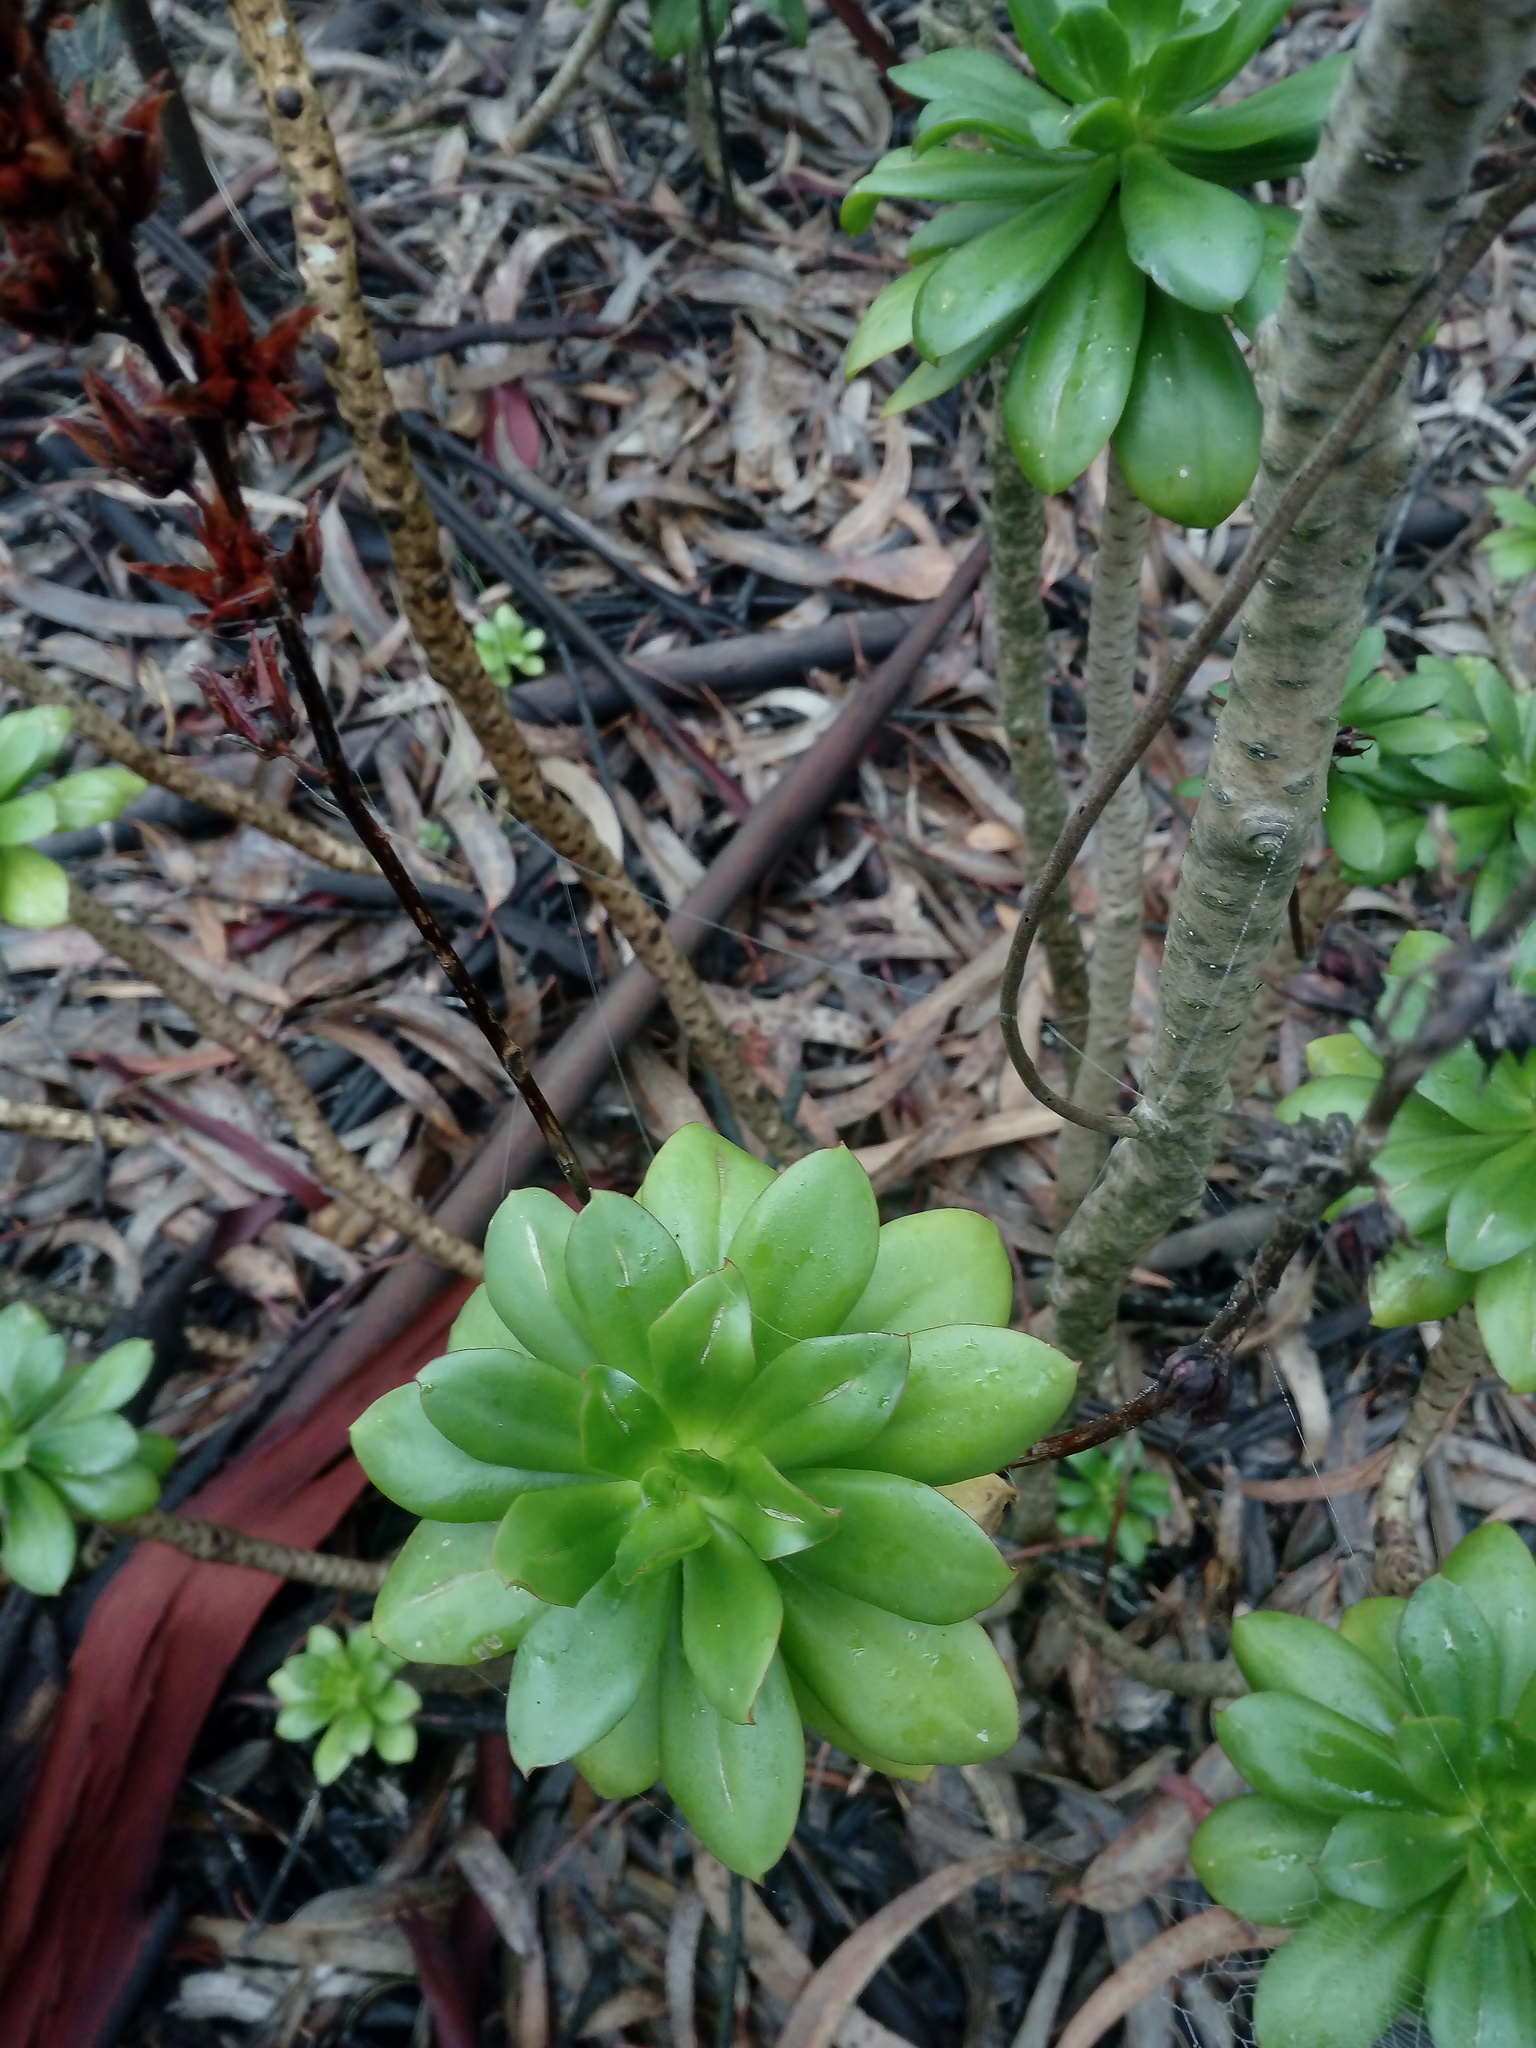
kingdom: Plantae
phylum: Tracheophyta
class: Magnoliopsida
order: Saxifragales
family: Crassulaceae
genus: Echeveria
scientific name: Echeveria bicolor
